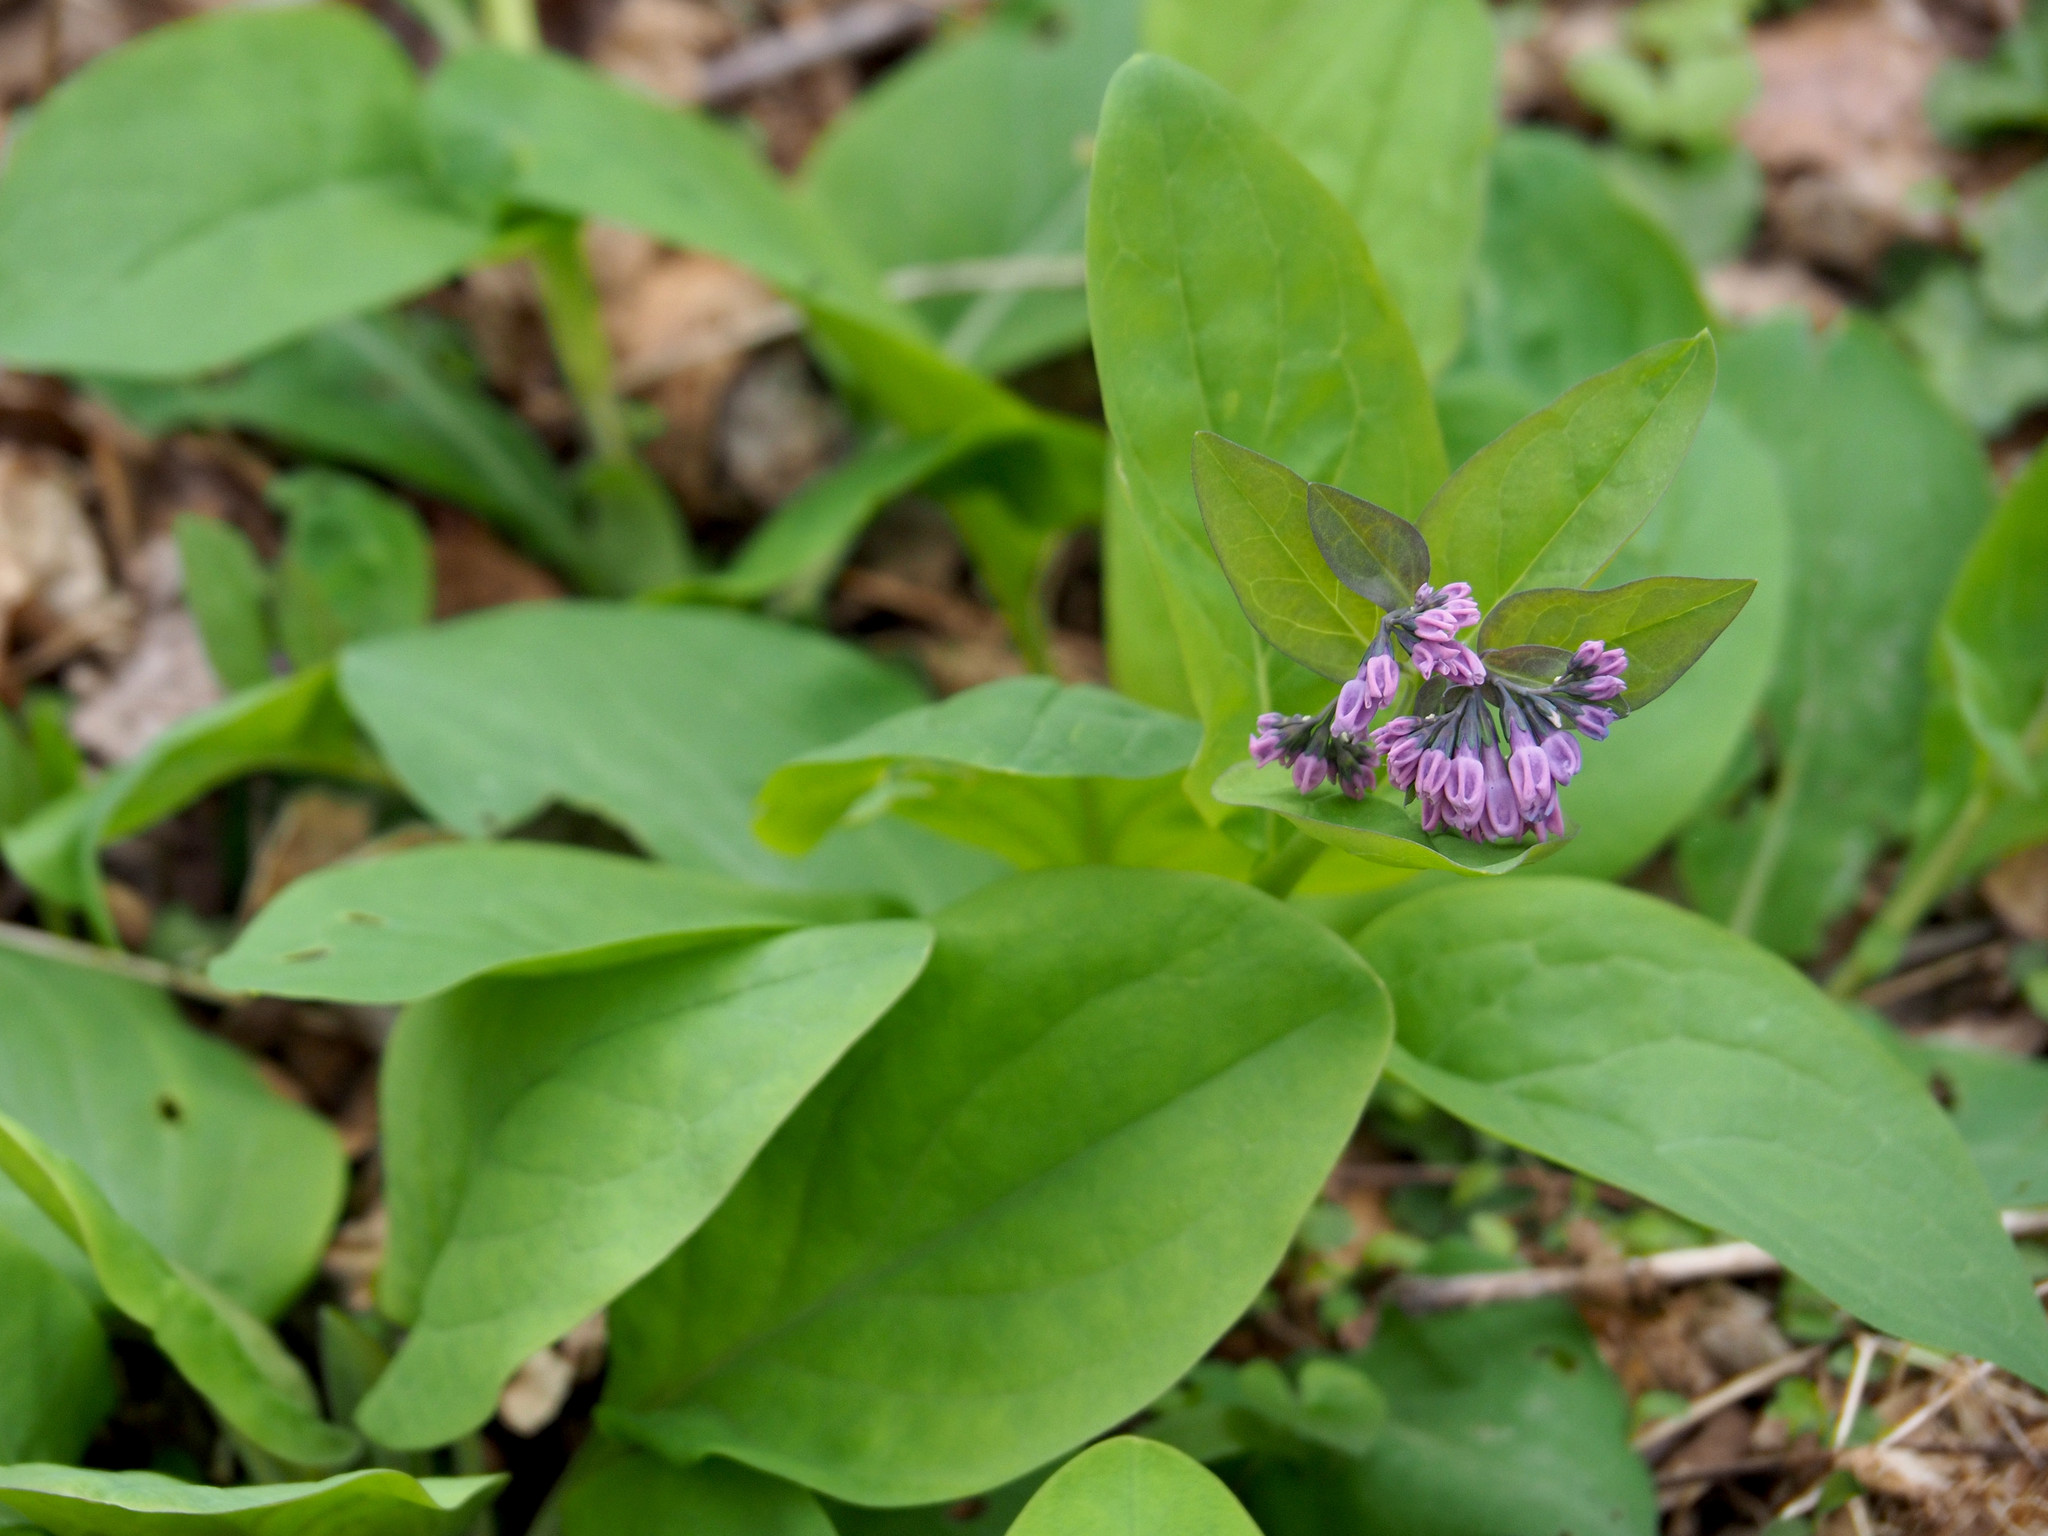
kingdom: Plantae
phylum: Tracheophyta
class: Magnoliopsida
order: Boraginales
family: Boraginaceae
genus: Mertensia
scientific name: Mertensia virginica
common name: Virginia bluebells
